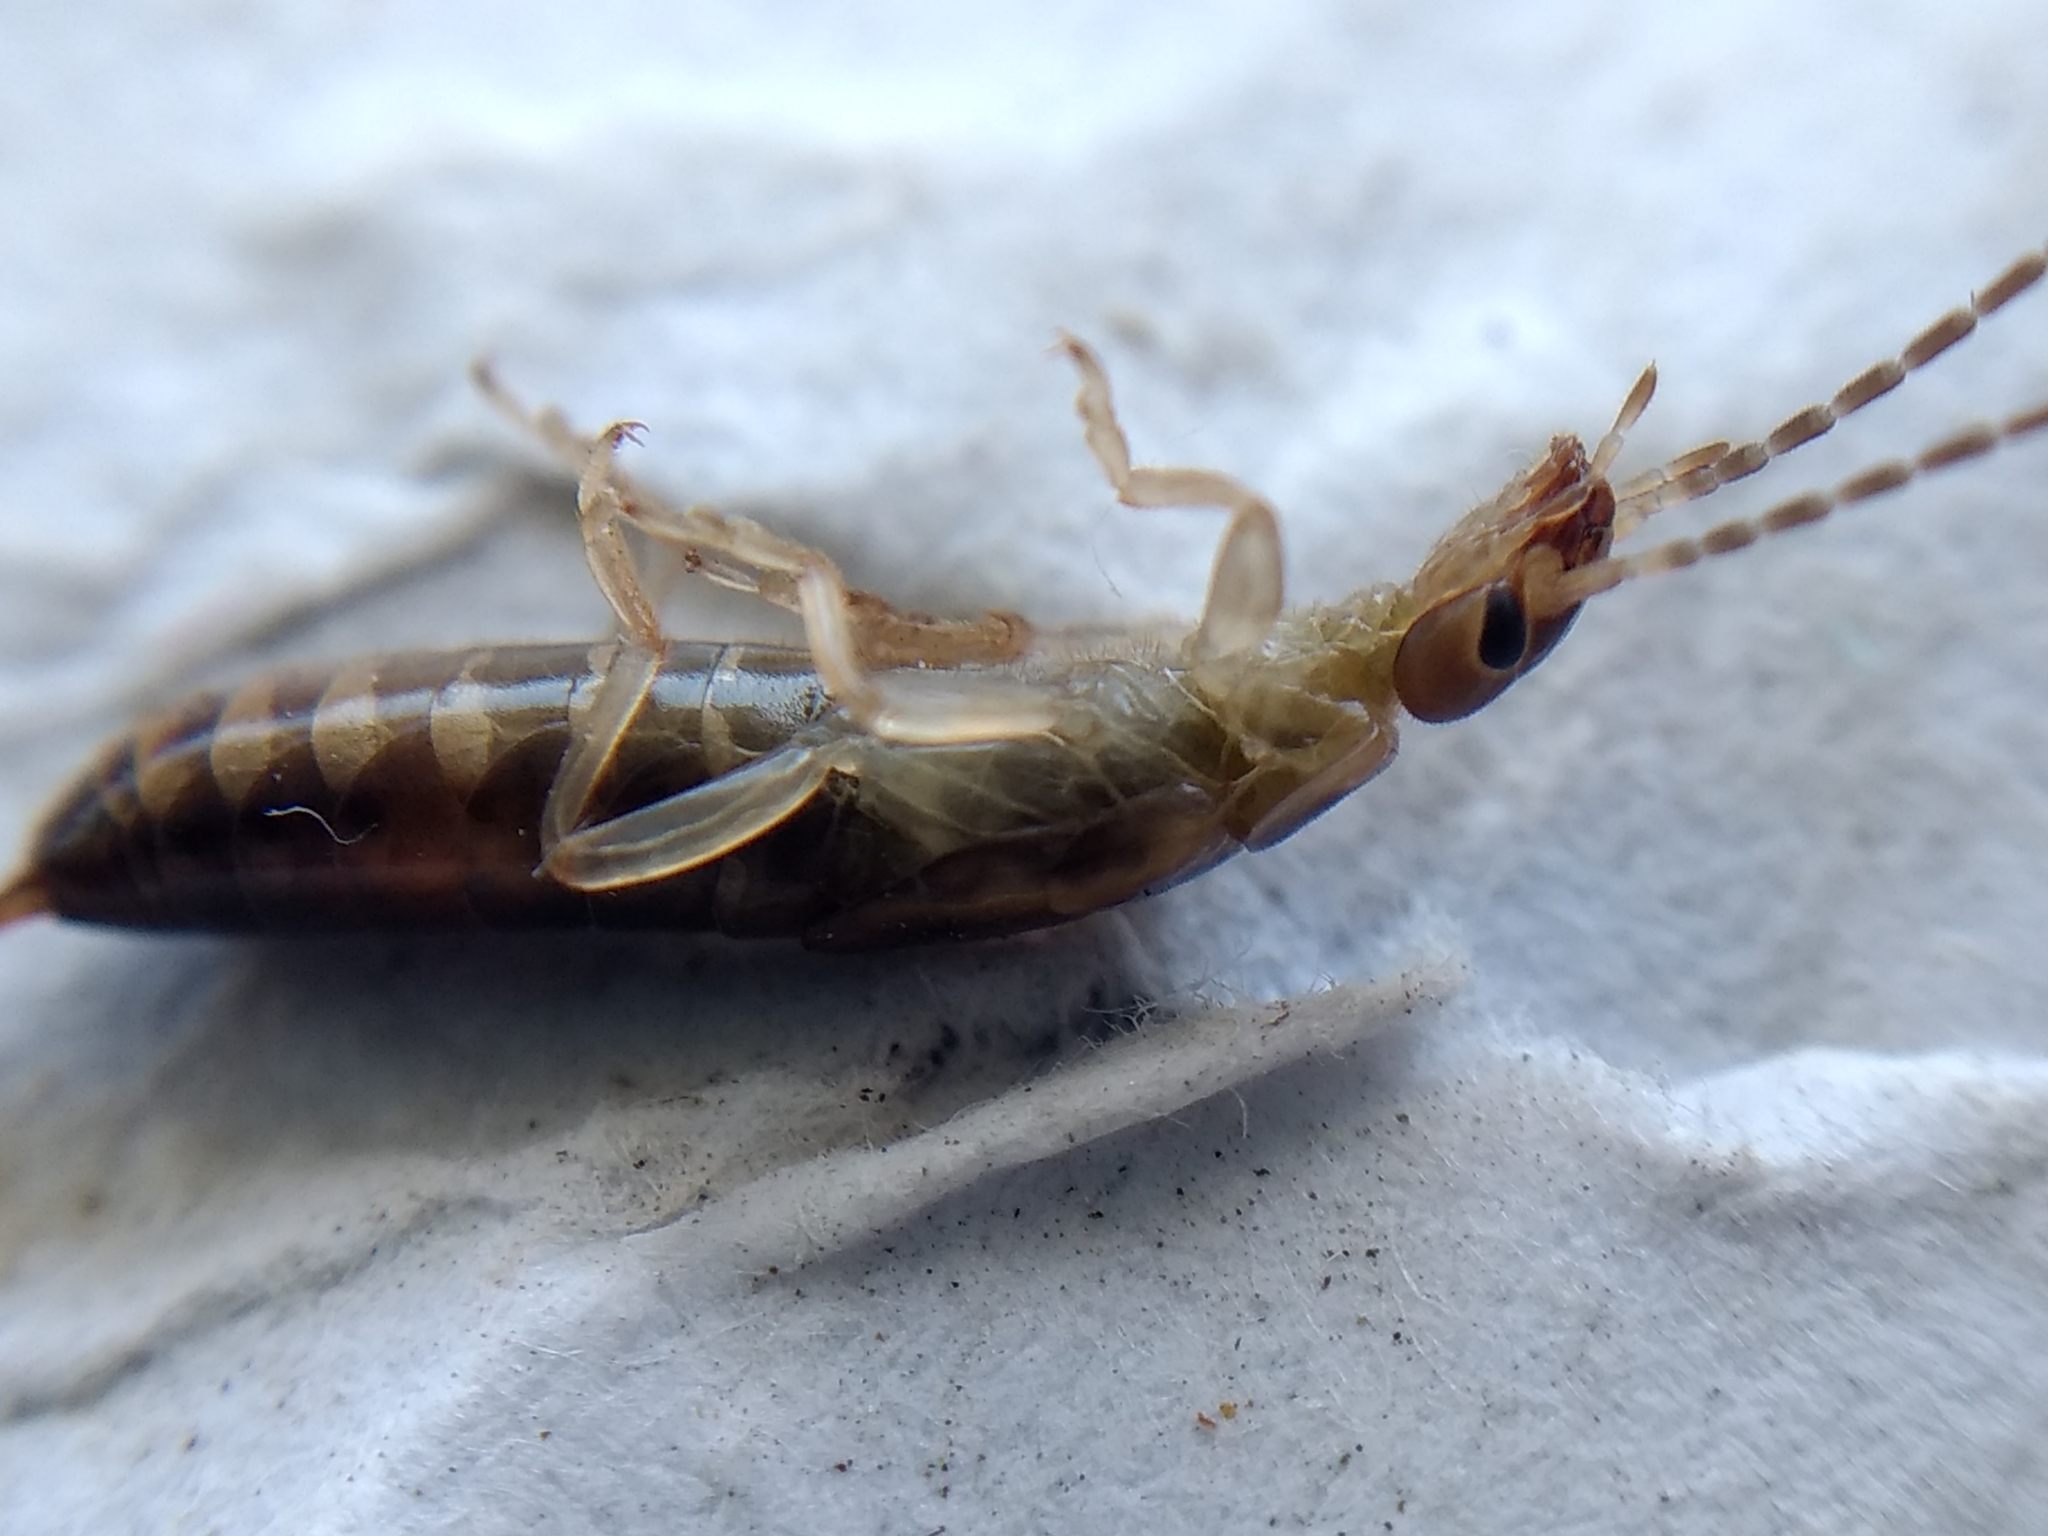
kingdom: Animalia
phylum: Arthropoda
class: Insecta
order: Dermaptera
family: Forficulidae
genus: Forficula
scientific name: Forficula
